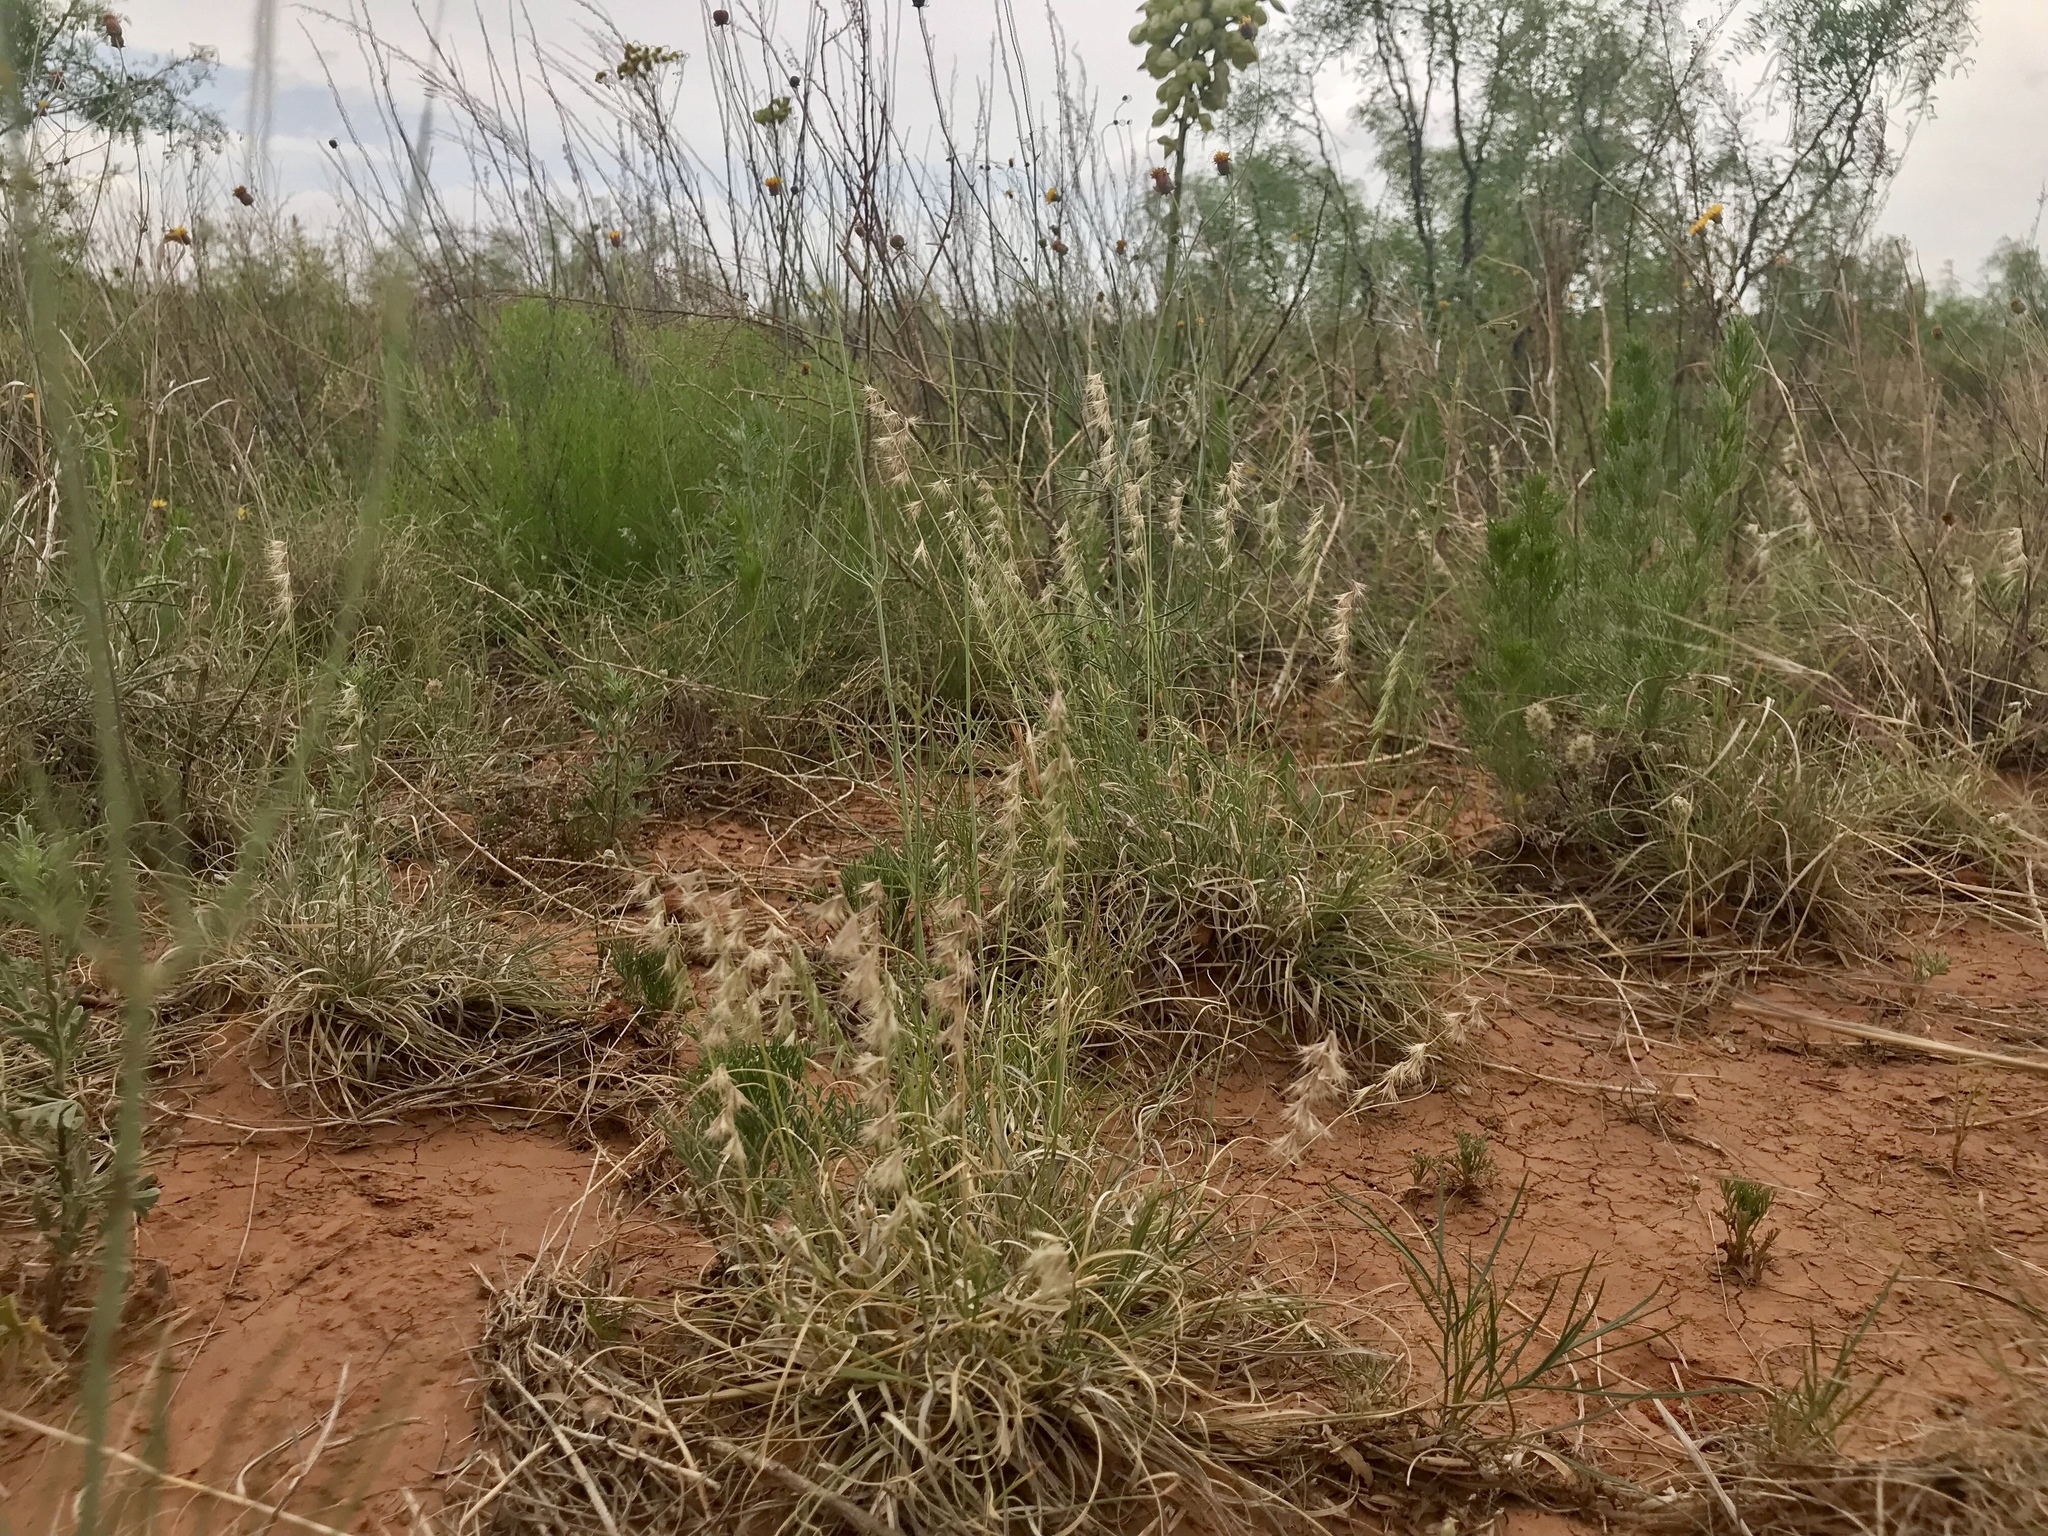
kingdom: Plantae
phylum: Tracheophyta
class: Liliopsida
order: Poales
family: Poaceae
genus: Bouteloua
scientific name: Bouteloua rigidiseta
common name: Texas grama
